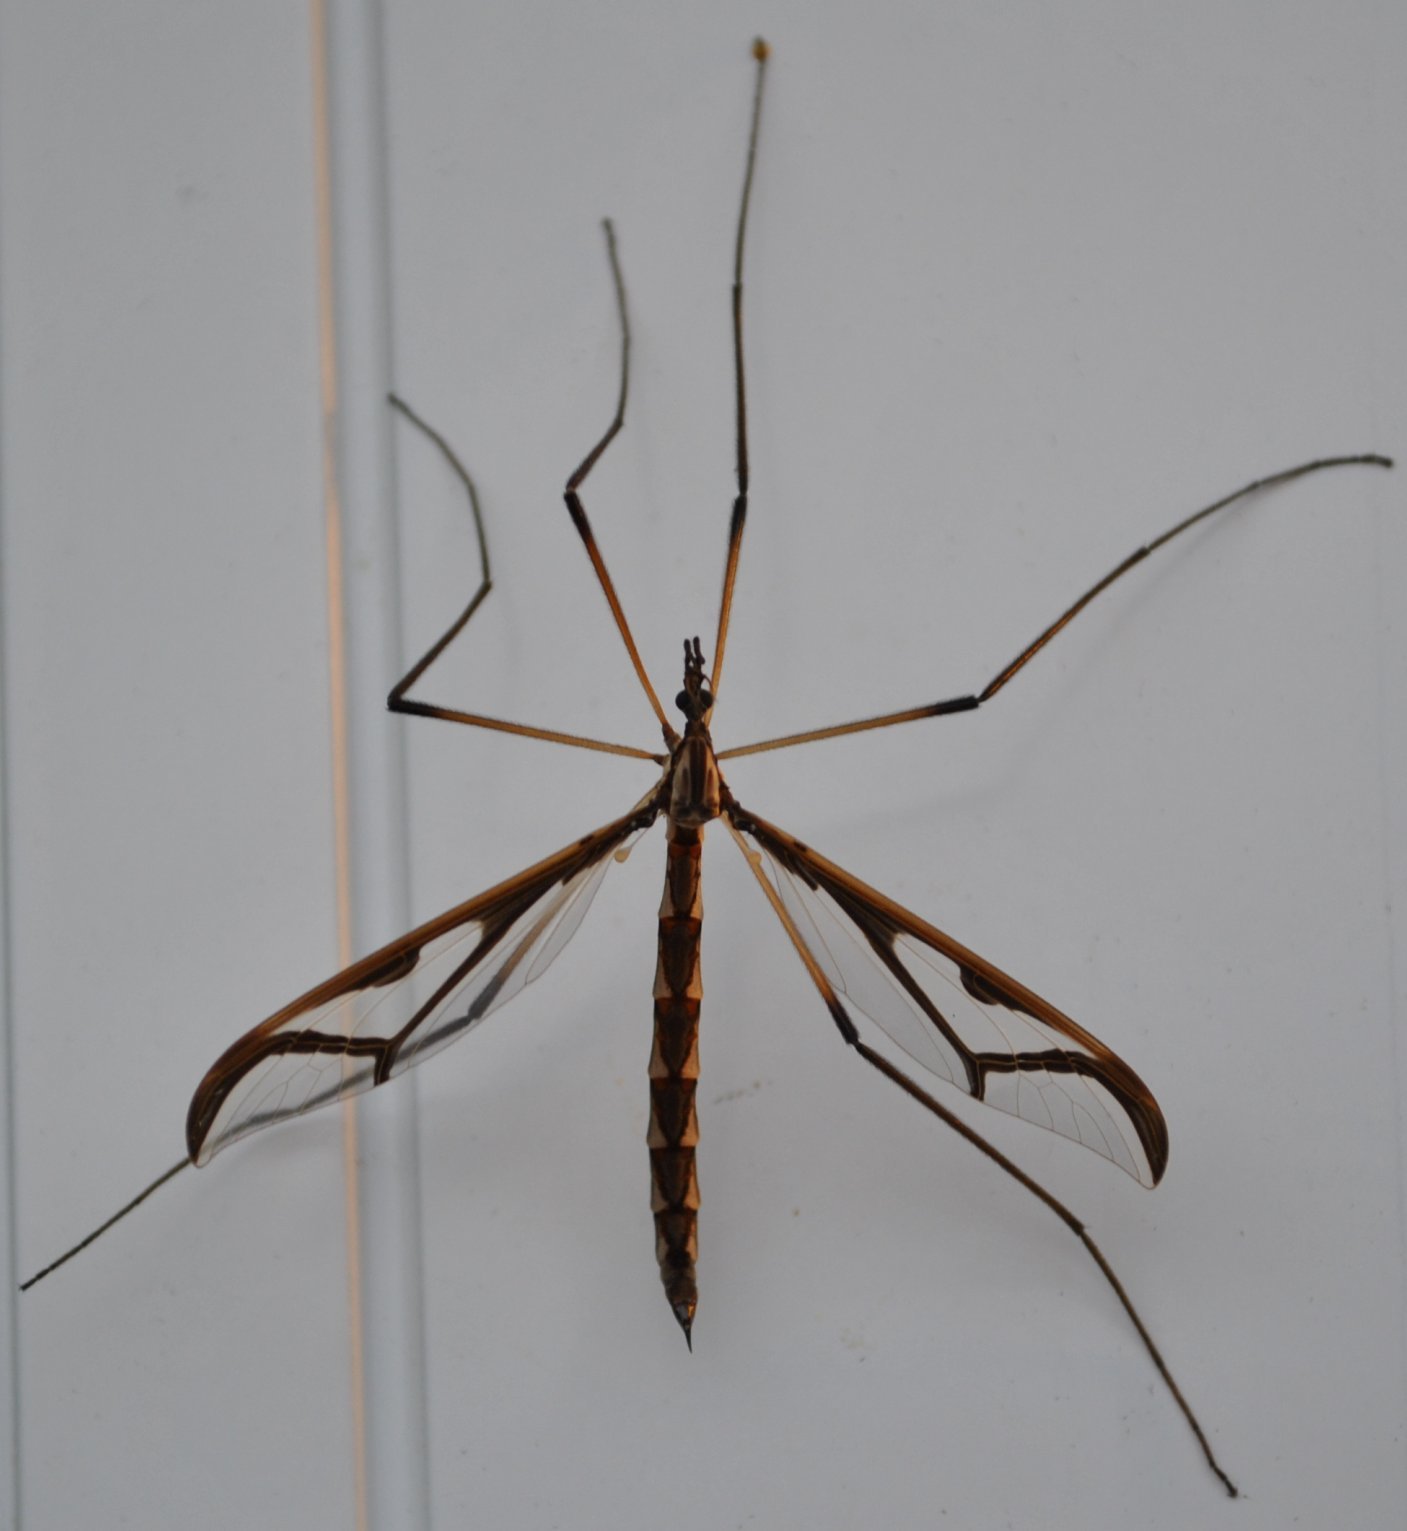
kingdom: Animalia
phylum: Arthropoda
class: Insecta
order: Diptera
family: Pediciidae
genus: Pedicia
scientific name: Pedicia albivitta
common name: Giant eastern crane fly
